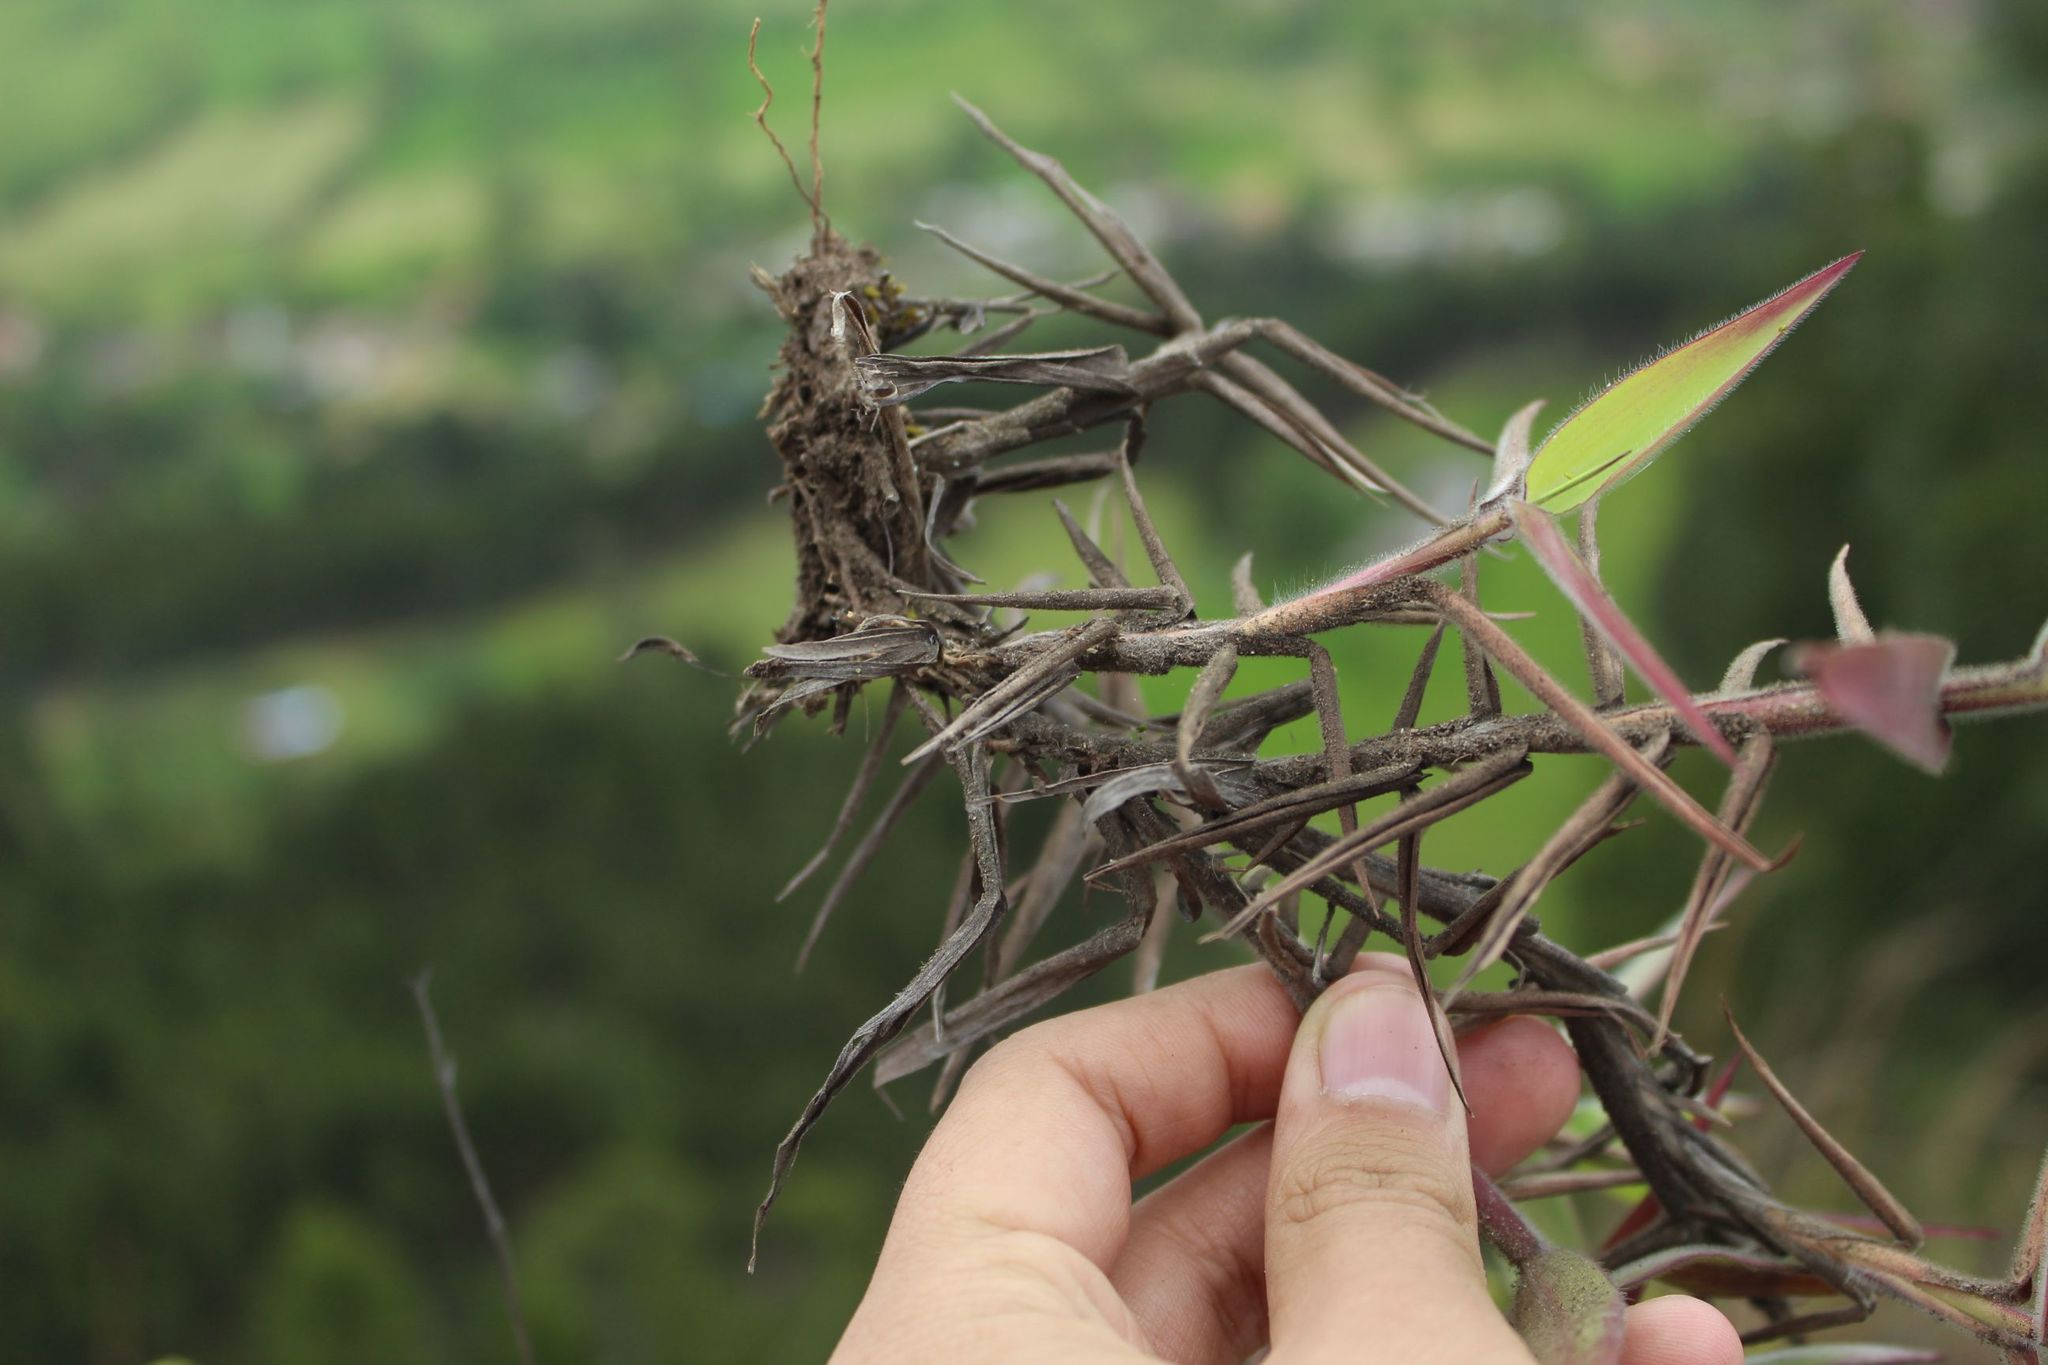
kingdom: Plantae
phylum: Tracheophyta
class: Liliopsida
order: Poales
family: Poaceae
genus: Melinis
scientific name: Melinis minutiflora
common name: Molassesgrass
